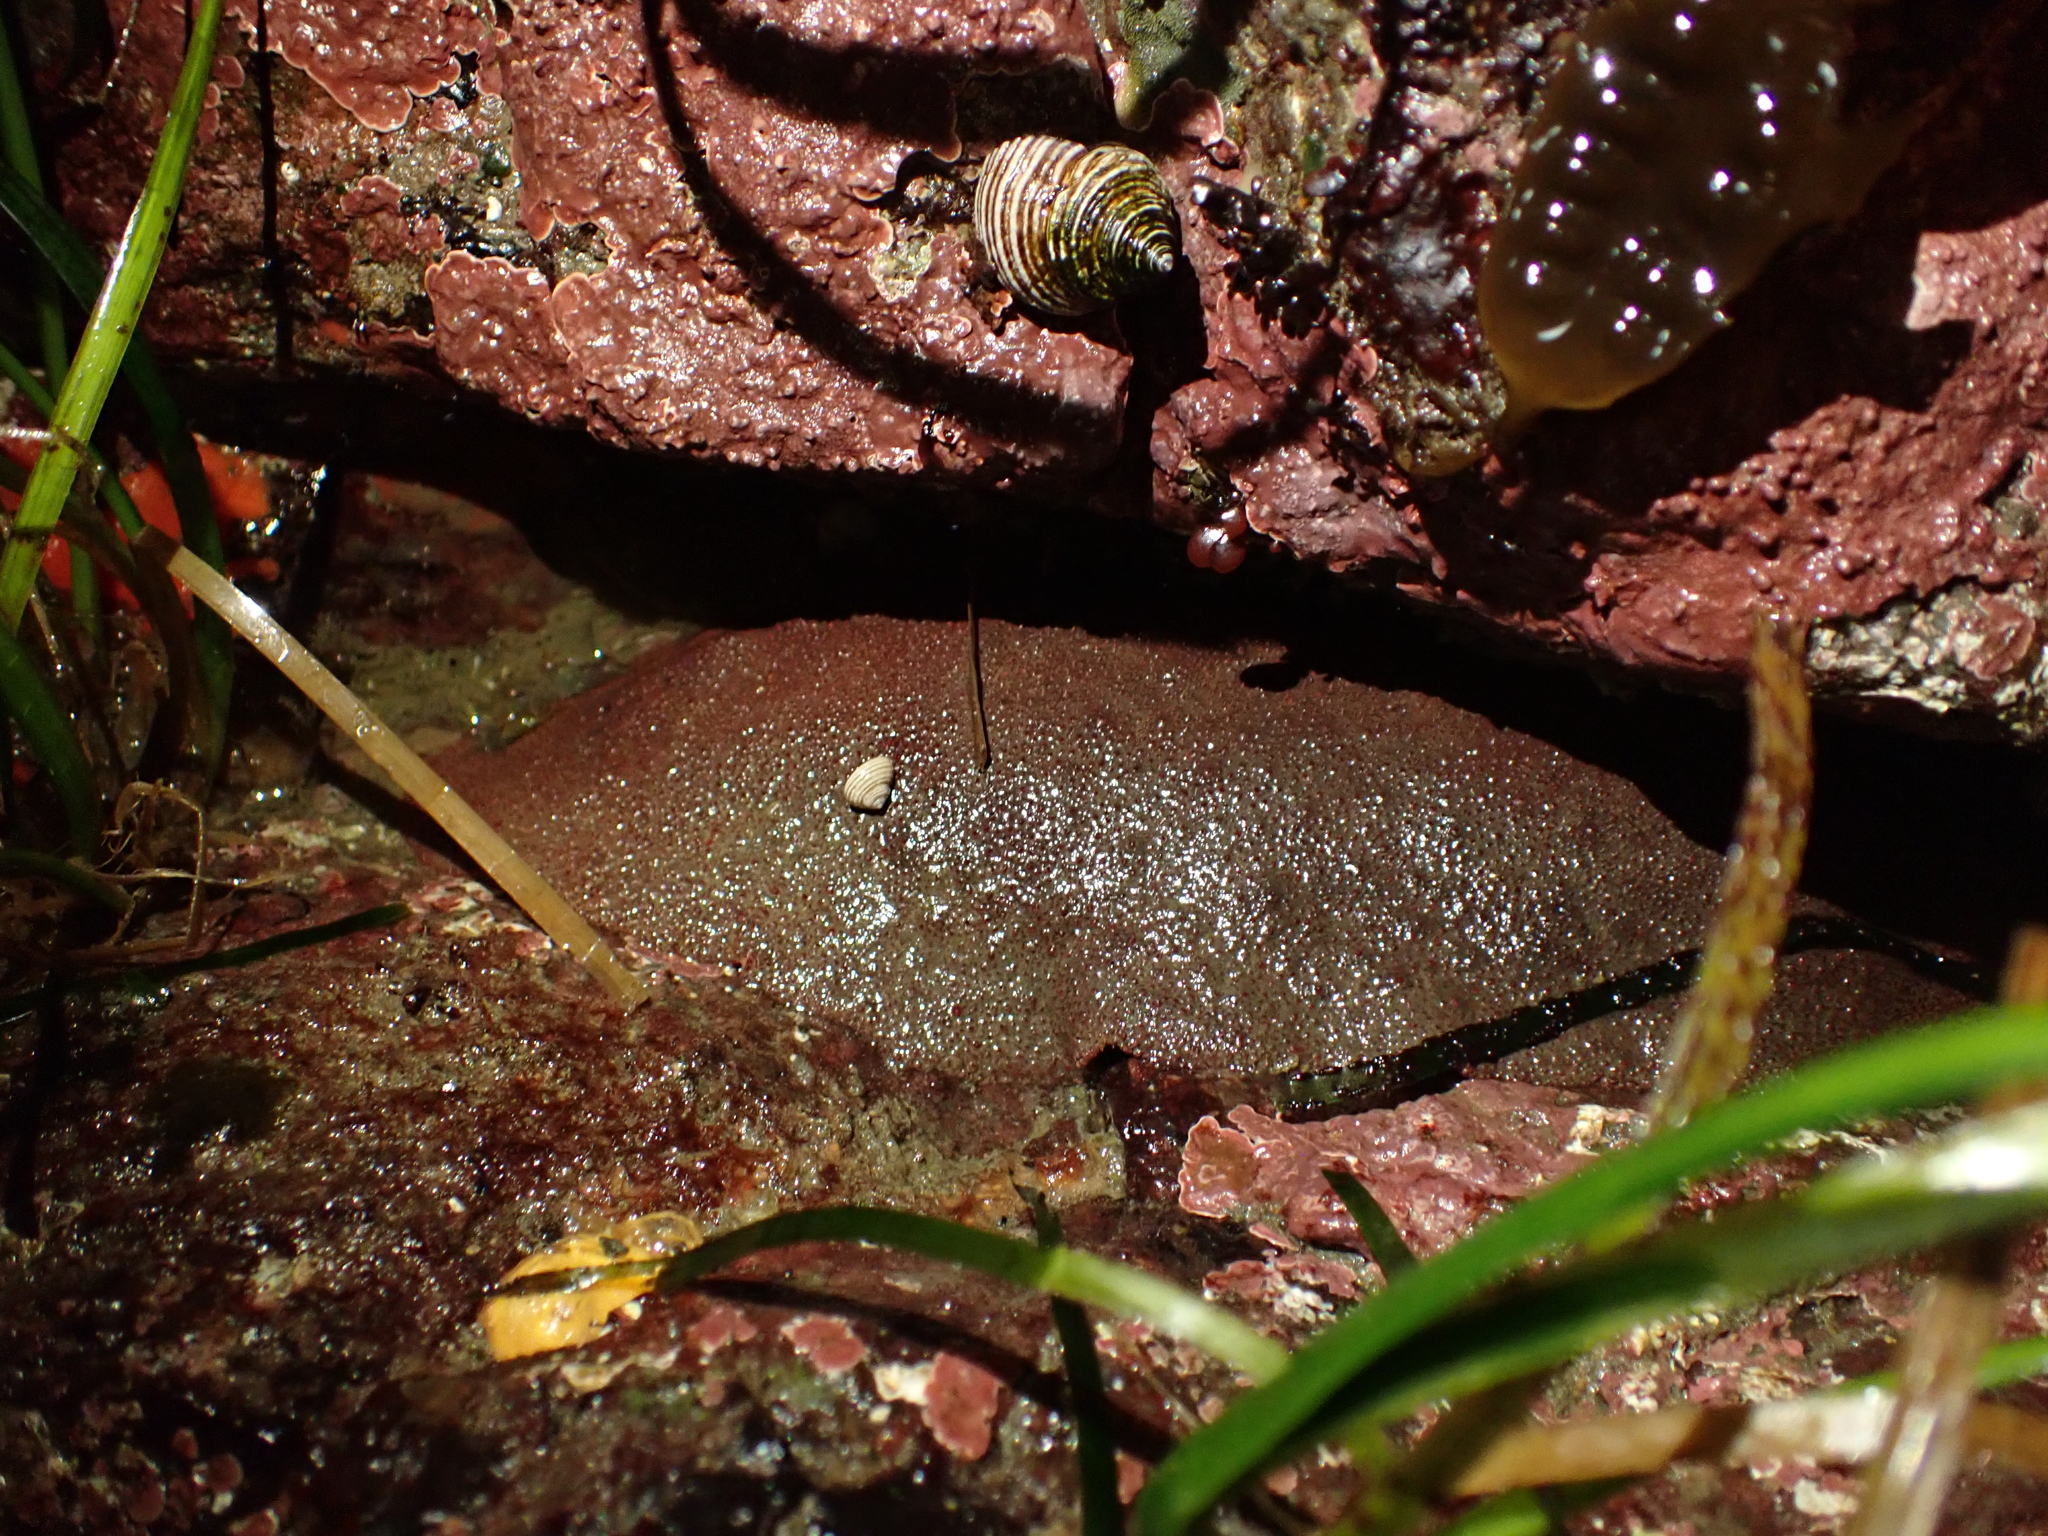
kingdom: Animalia
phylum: Mollusca
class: Polyplacophora
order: Chitonida
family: Acanthochitonidae
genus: Cryptochiton
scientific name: Cryptochiton stelleri
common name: Giant pacific chiton
